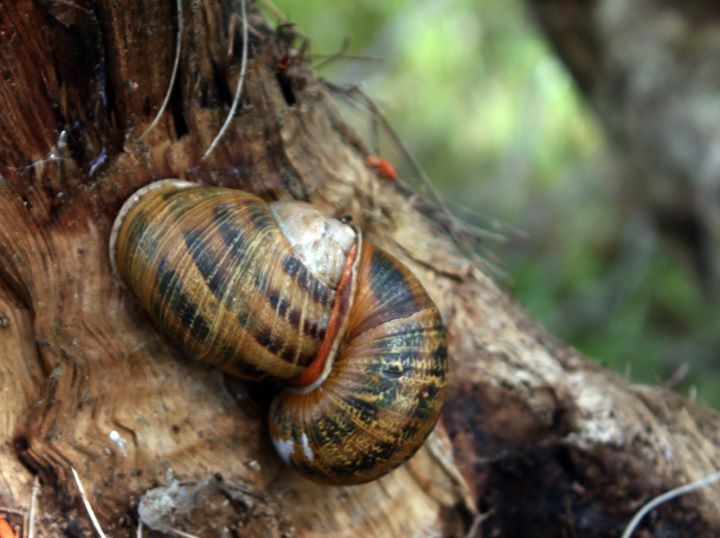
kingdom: Animalia
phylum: Mollusca
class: Gastropoda
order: Stylommatophora
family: Helicidae
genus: Cornu
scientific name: Cornu aspersum
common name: Brown garden snail
